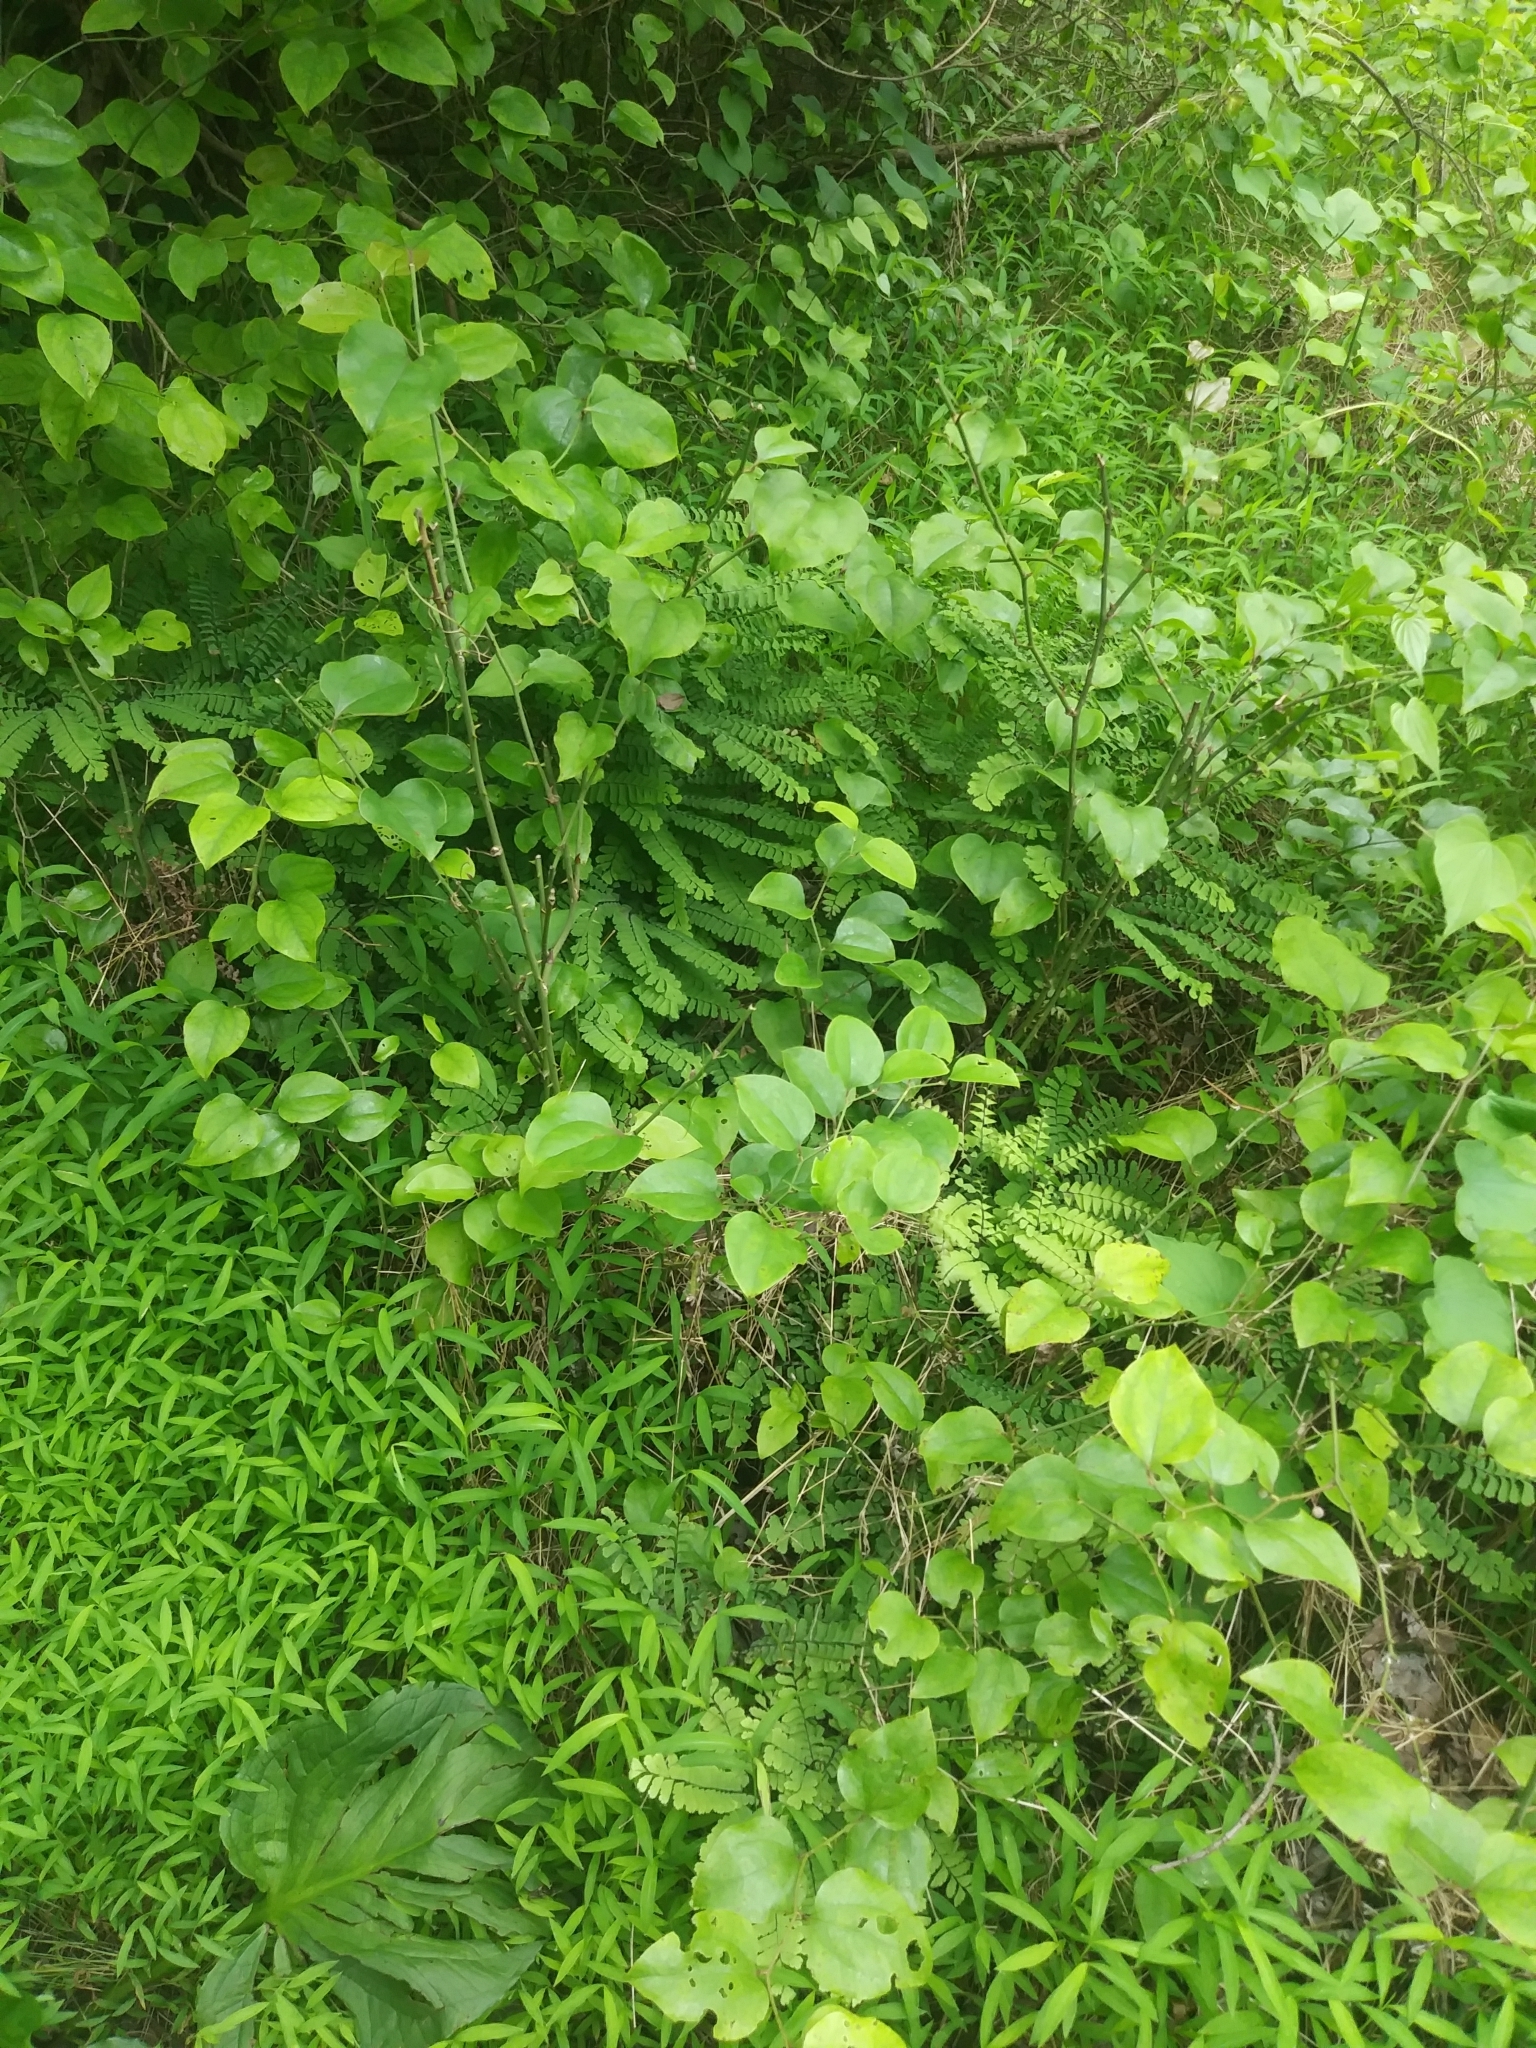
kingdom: Plantae
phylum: Tracheophyta
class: Polypodiopsida
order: Polypodiales
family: Pteridaceae
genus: Adiantum
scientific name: Adiantum pedatum
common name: Five-finger fern
